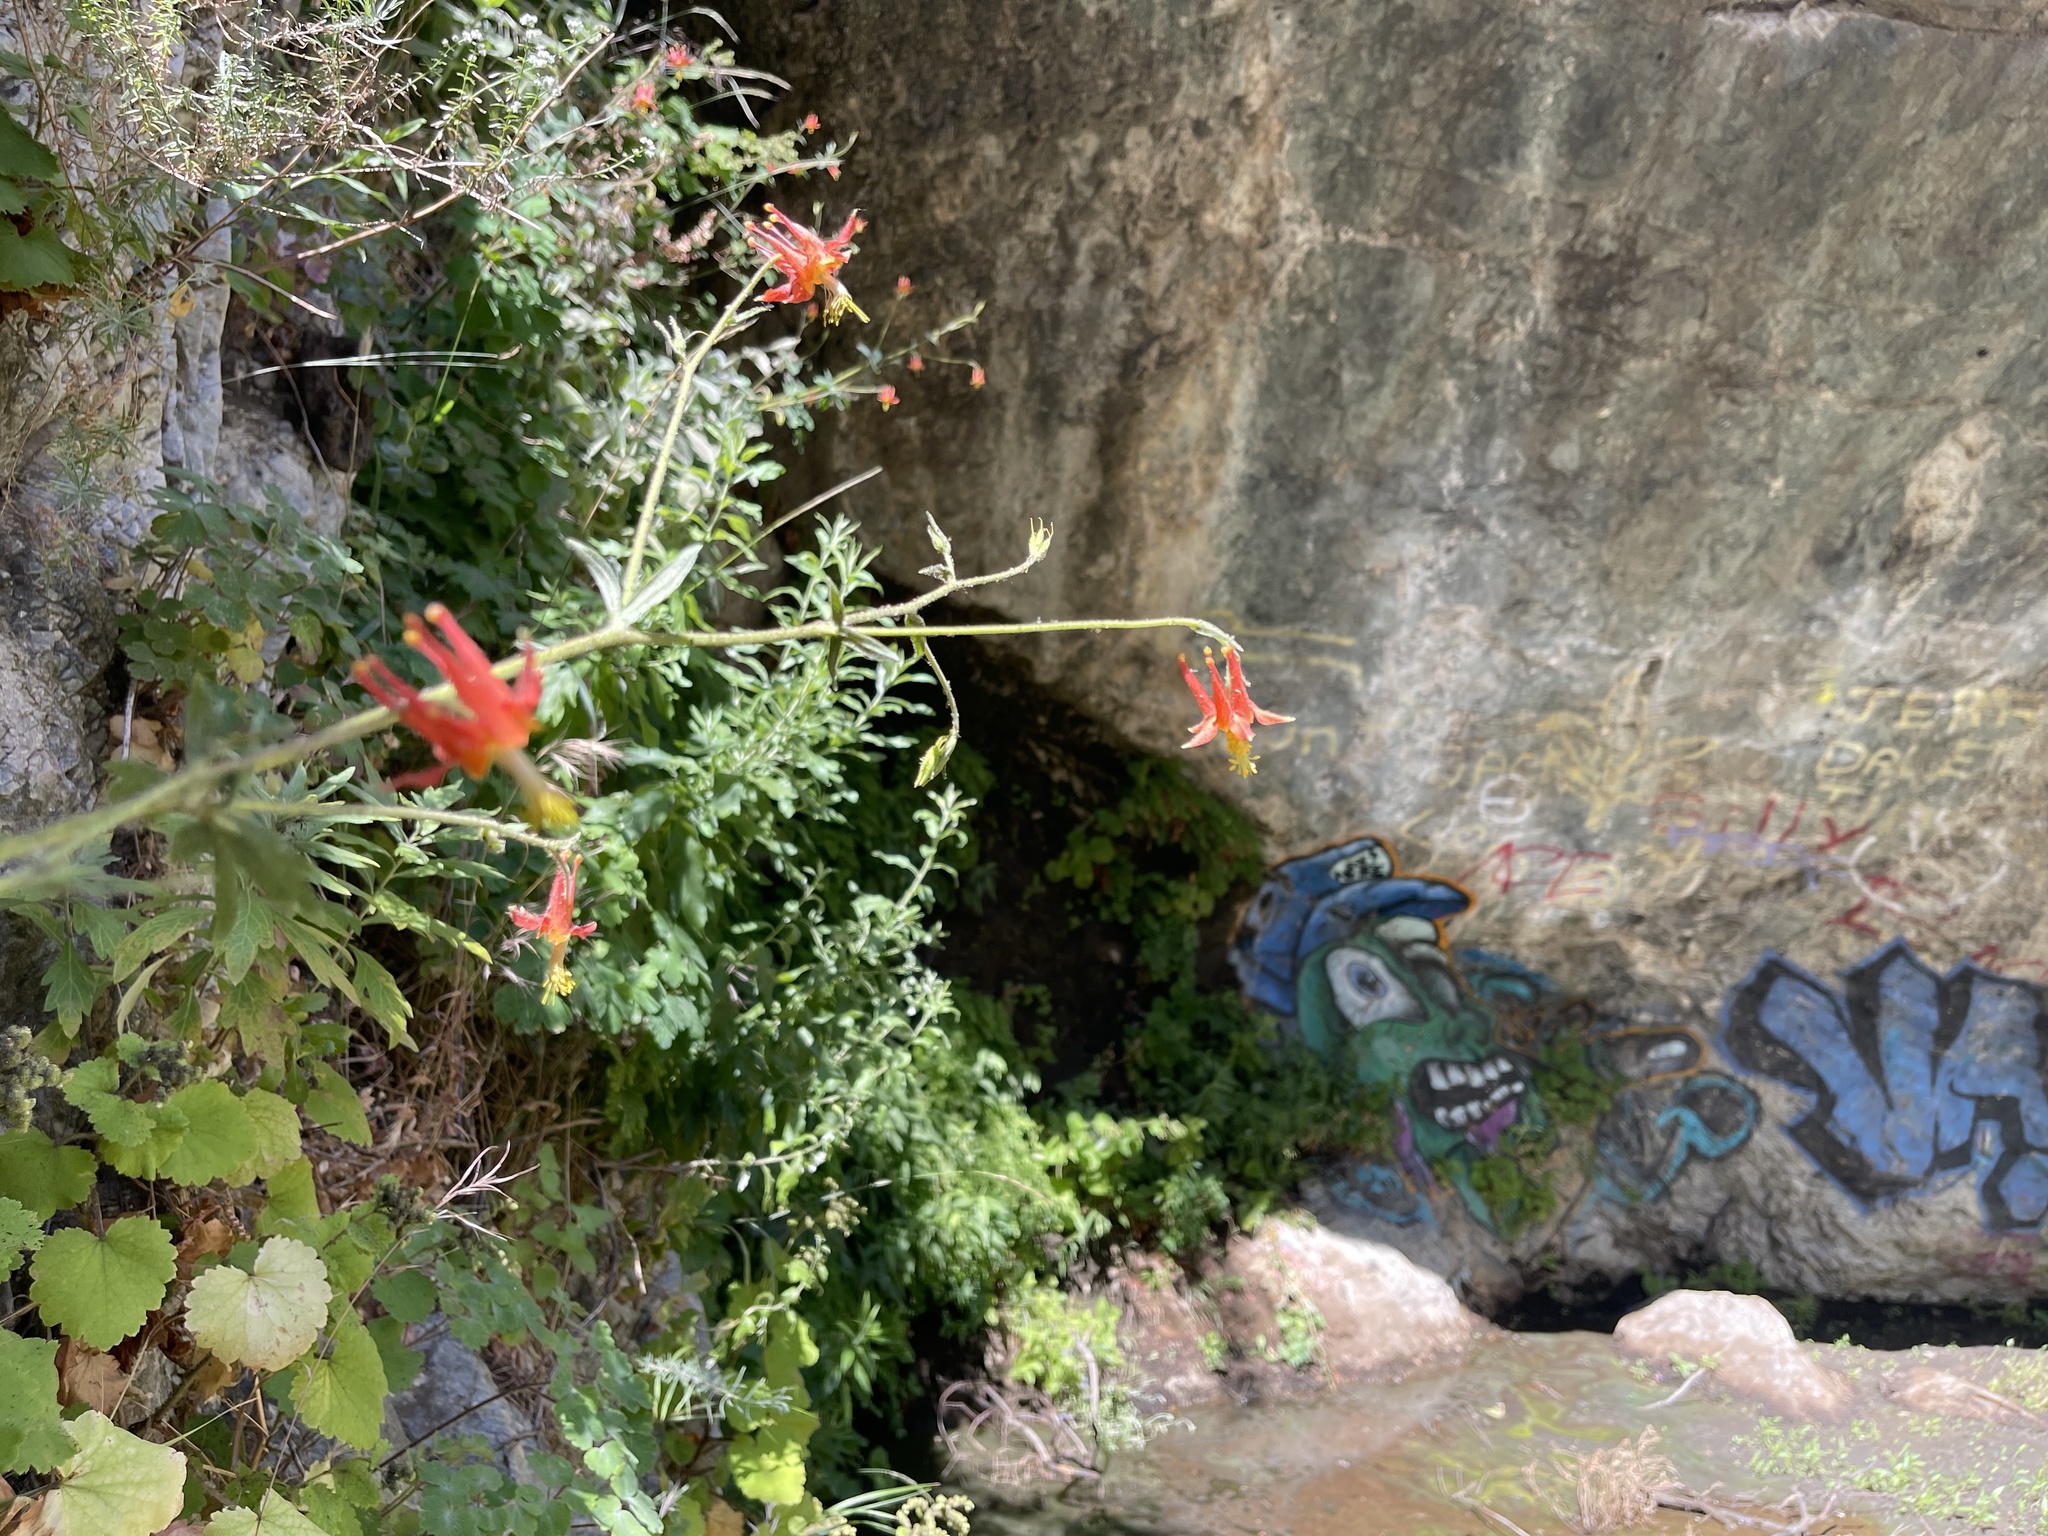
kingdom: Plantae
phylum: Tracheophyta
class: Magnoliopsida
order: Ranunculales
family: Ranunculaceae
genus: Aquilegia
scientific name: Aquilegia formosa
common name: Sitka columbine
